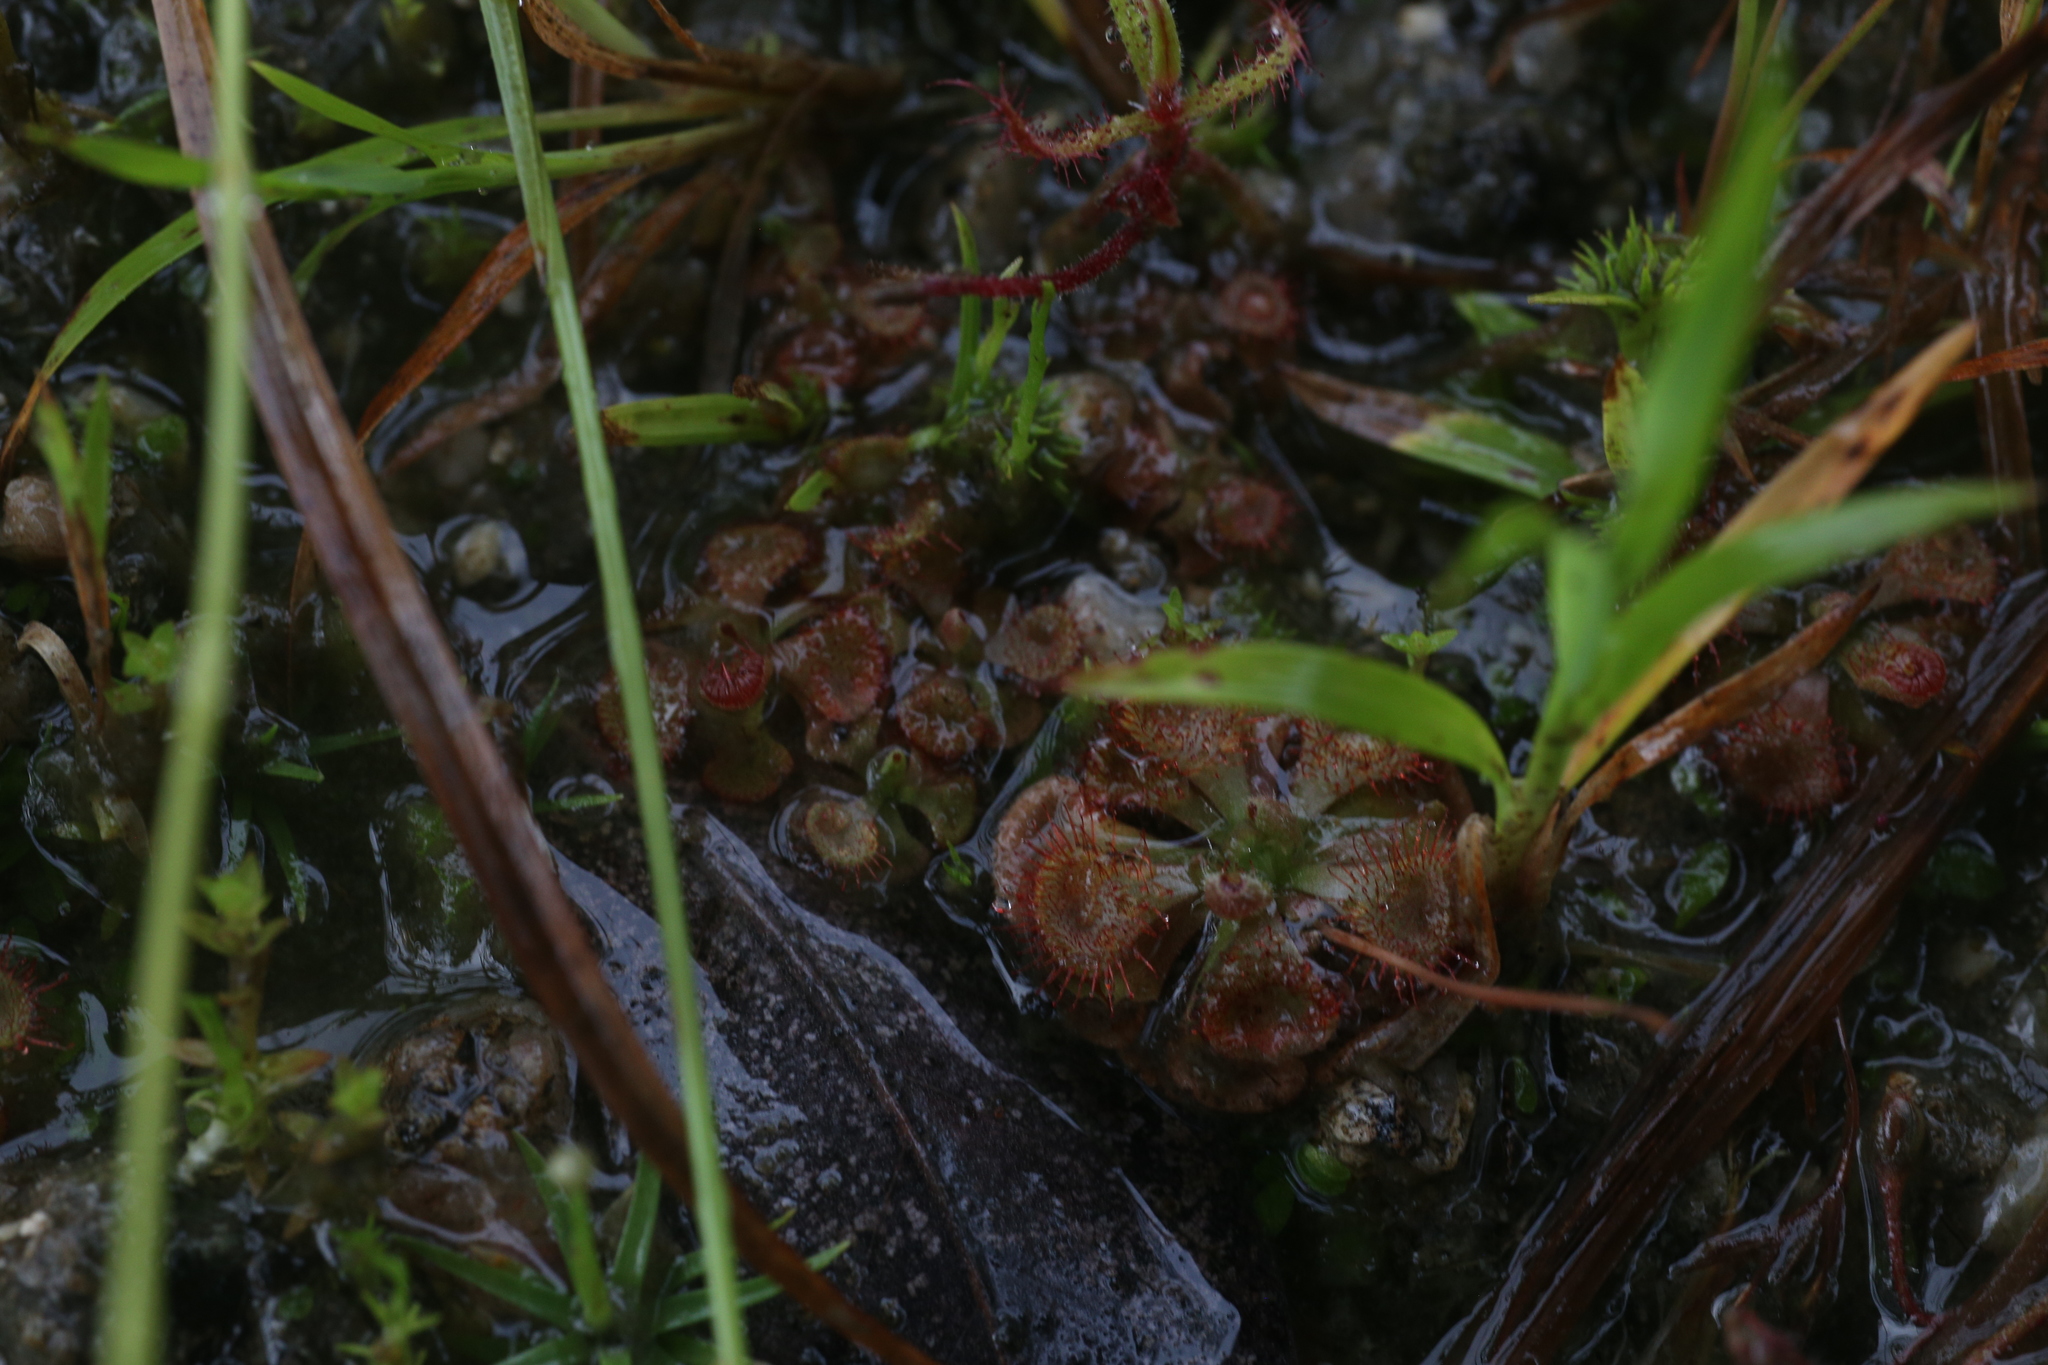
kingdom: Plantae
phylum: Tracheophyta
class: Magnoliopsida
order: Caryophyllales
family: Droseraceae
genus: Drosera
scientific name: Drosera spatulata
